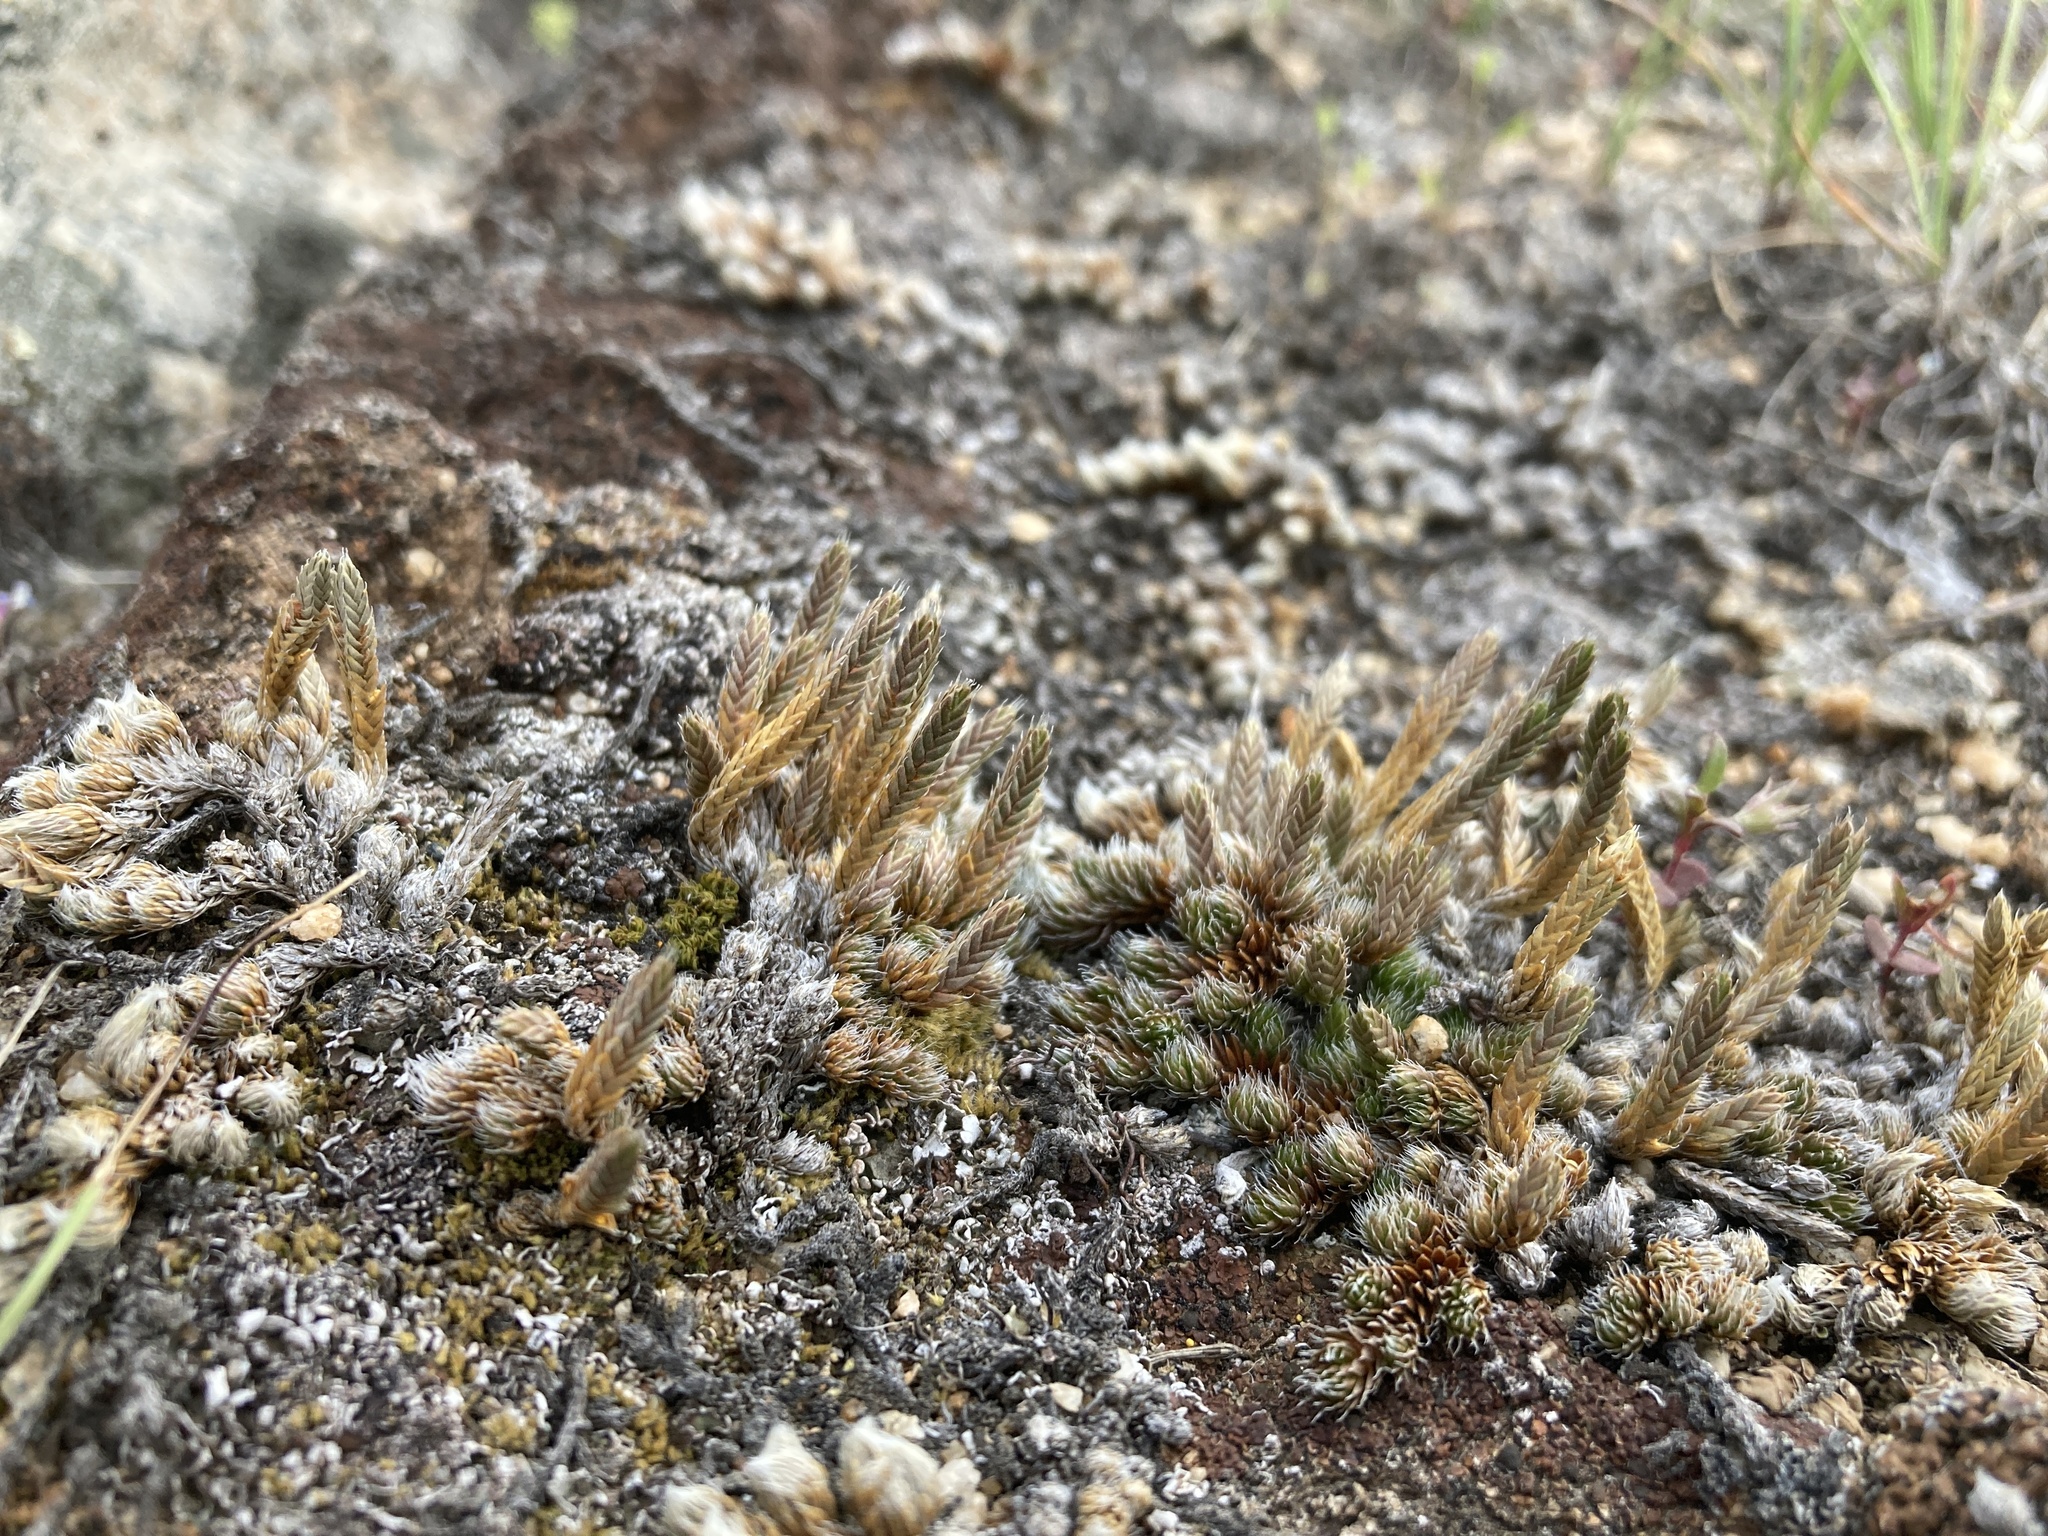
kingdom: Plantae
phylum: Tracheophyta
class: Lycopodiopsida
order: Selaginellales
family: Selaginellaceae
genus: Selaginella
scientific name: Selaginella densa
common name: Mountain spike-moss
